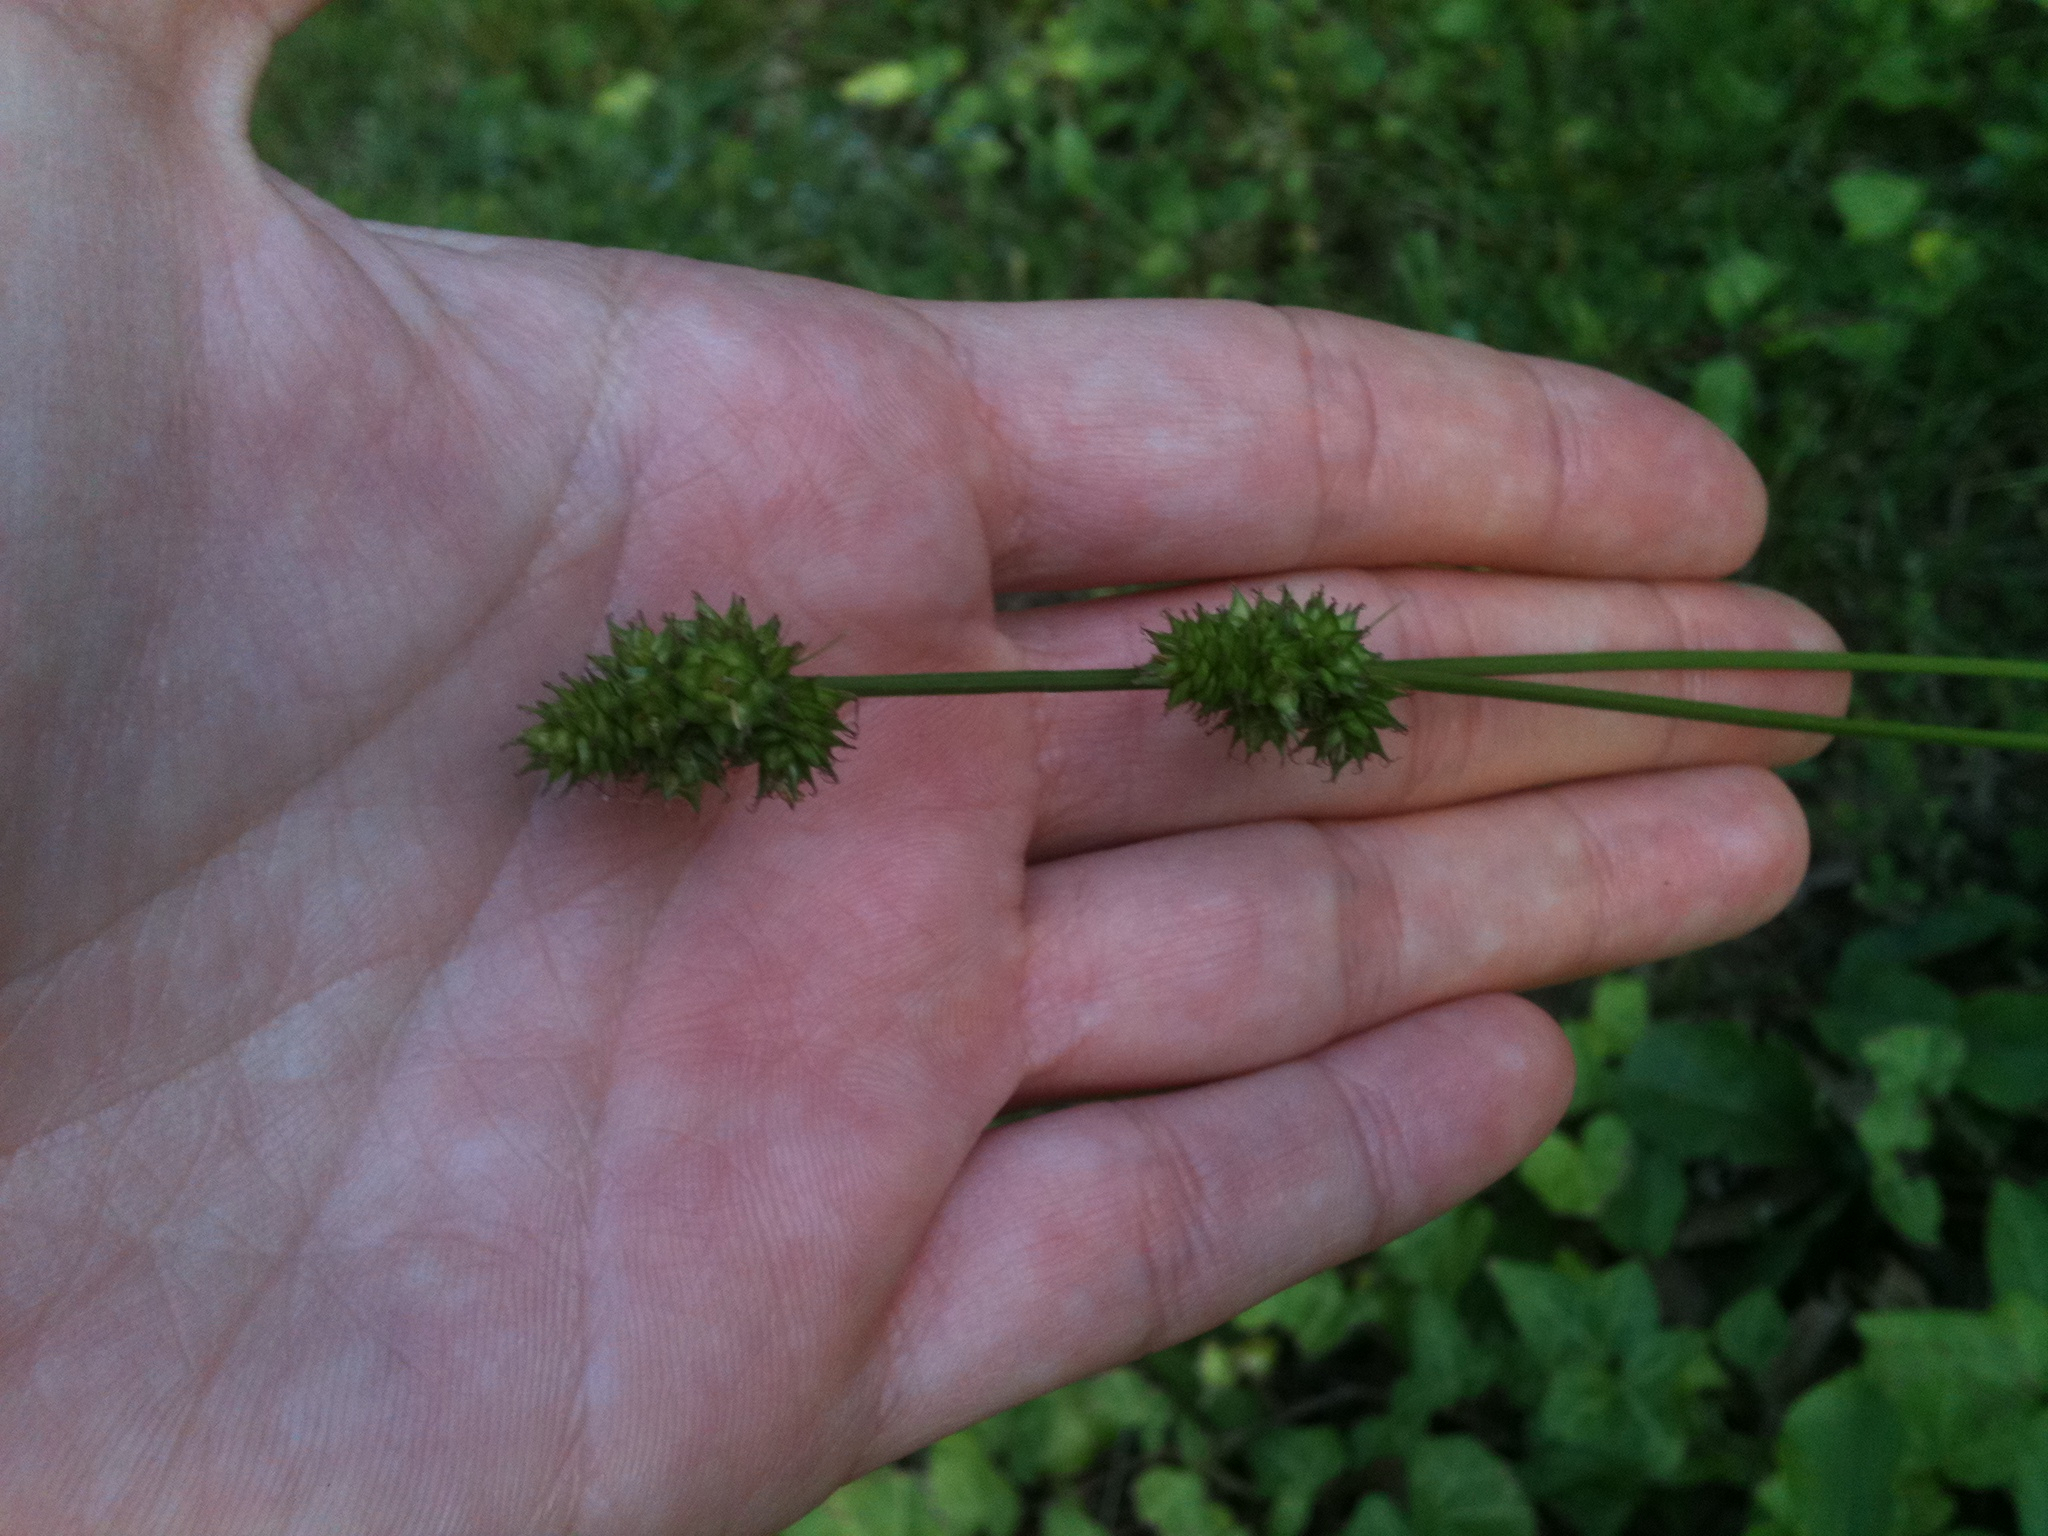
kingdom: Plantae
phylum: Tracheophyta
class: Liliopsida
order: Poales
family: Cyperaceae
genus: Carex
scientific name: Carex cephalophora
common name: Oval-headed sedge
